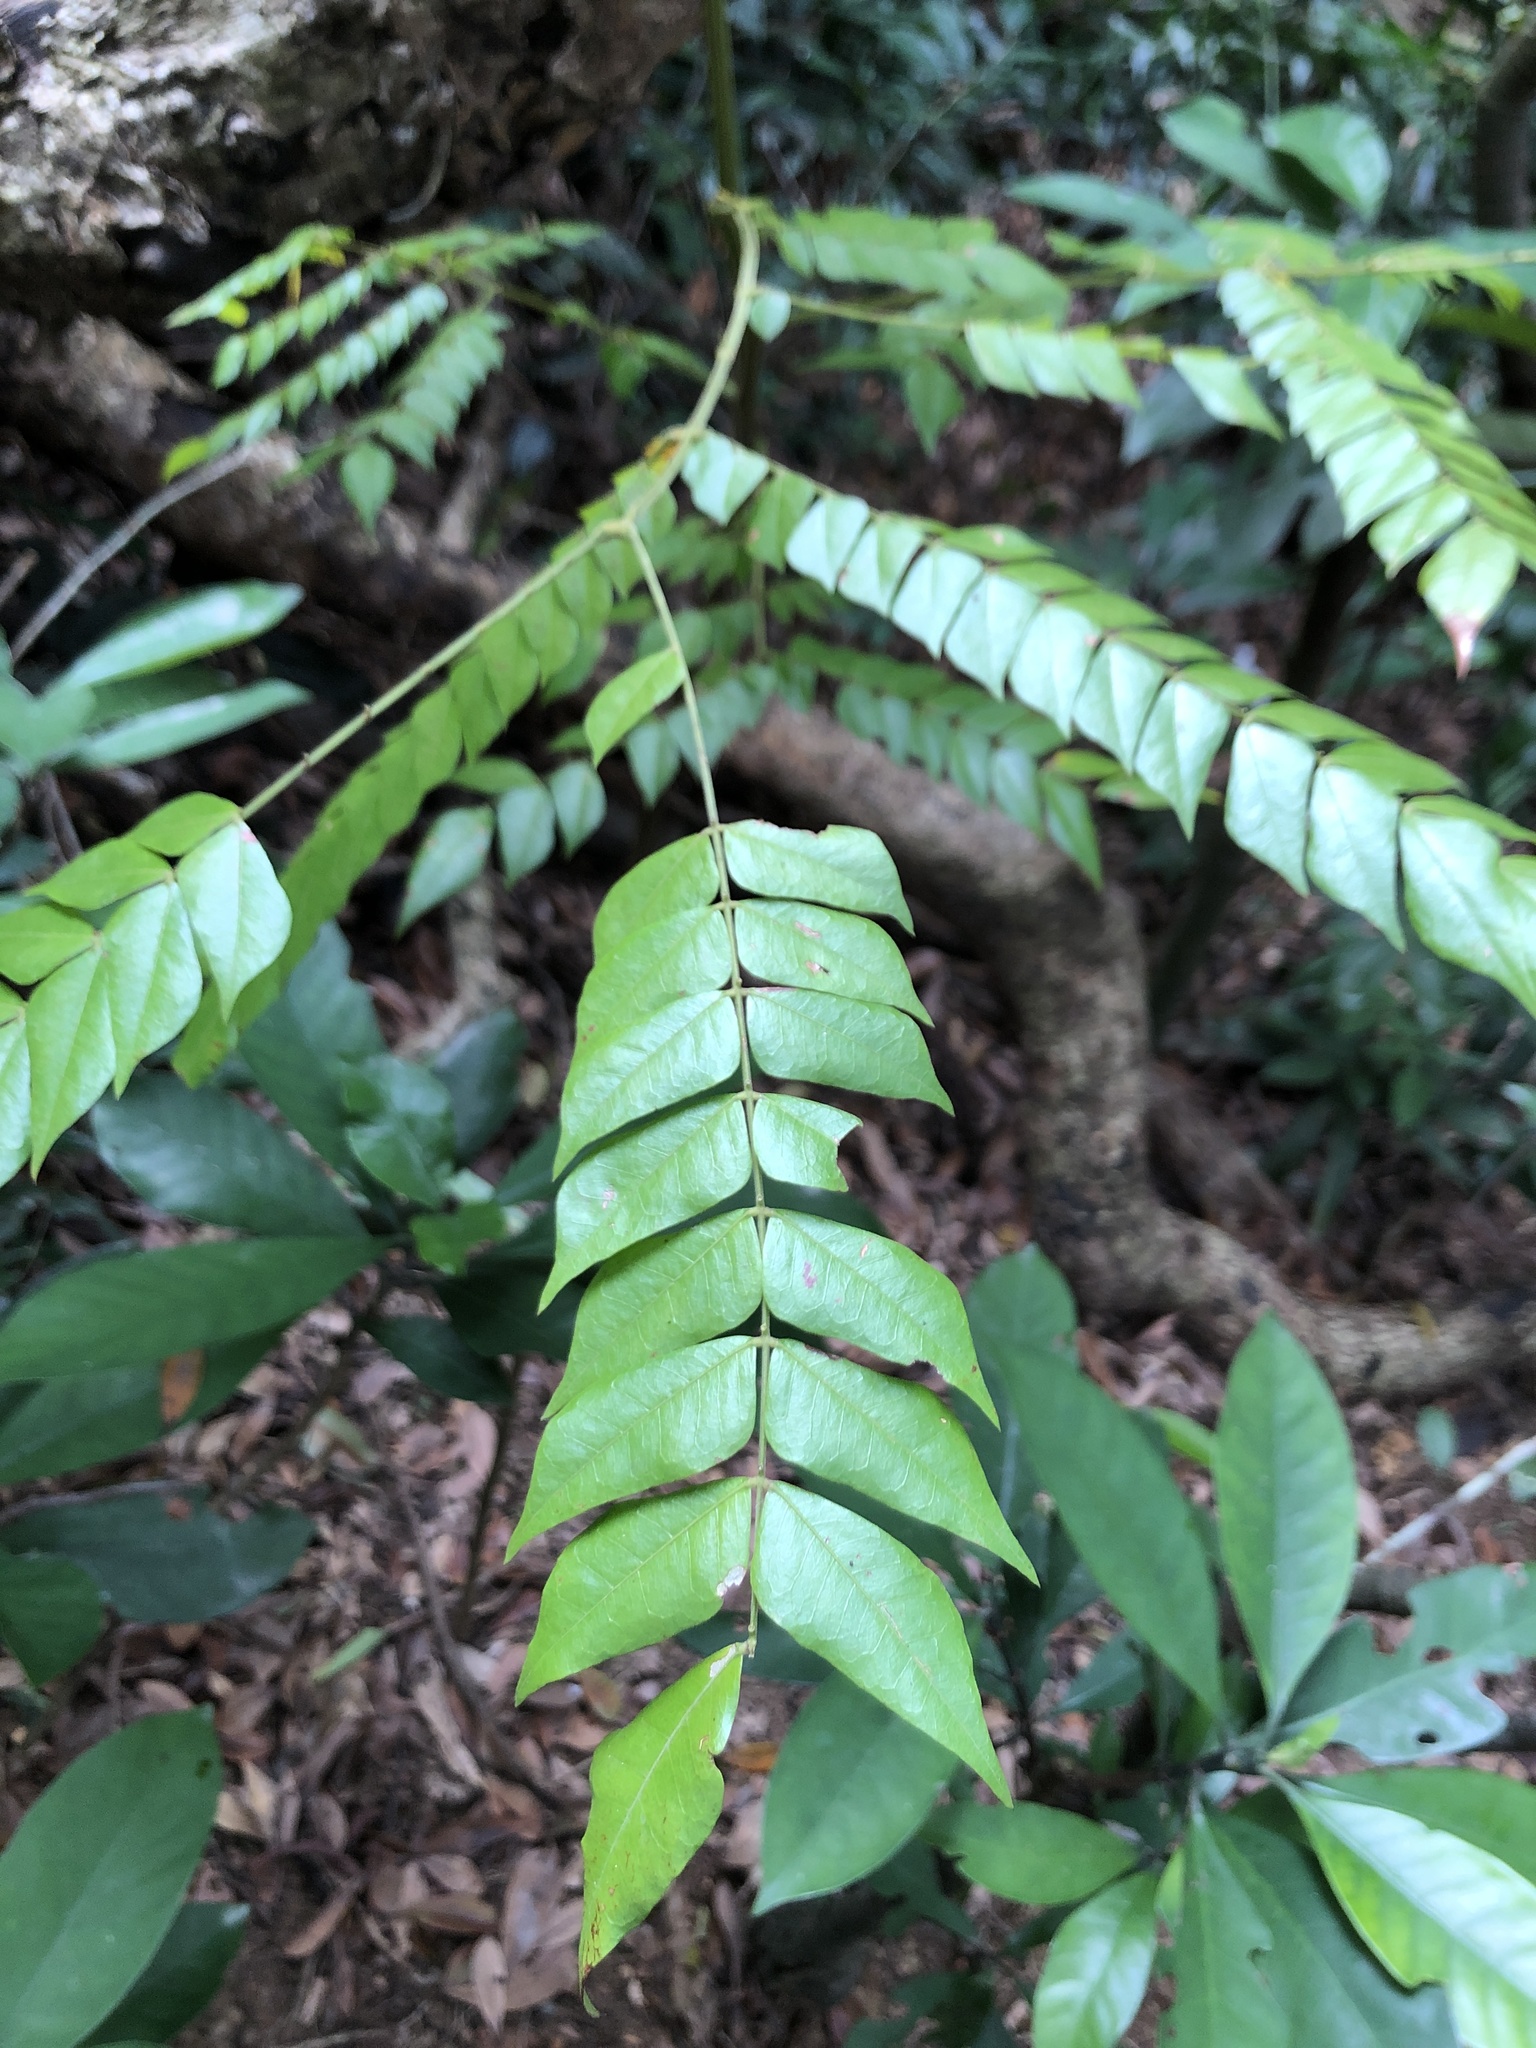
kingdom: Plantae
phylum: Tracheophyta
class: Magnoliopsida
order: Fabales
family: Fabaceae
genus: Archidendron
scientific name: Archidendron clypearia
